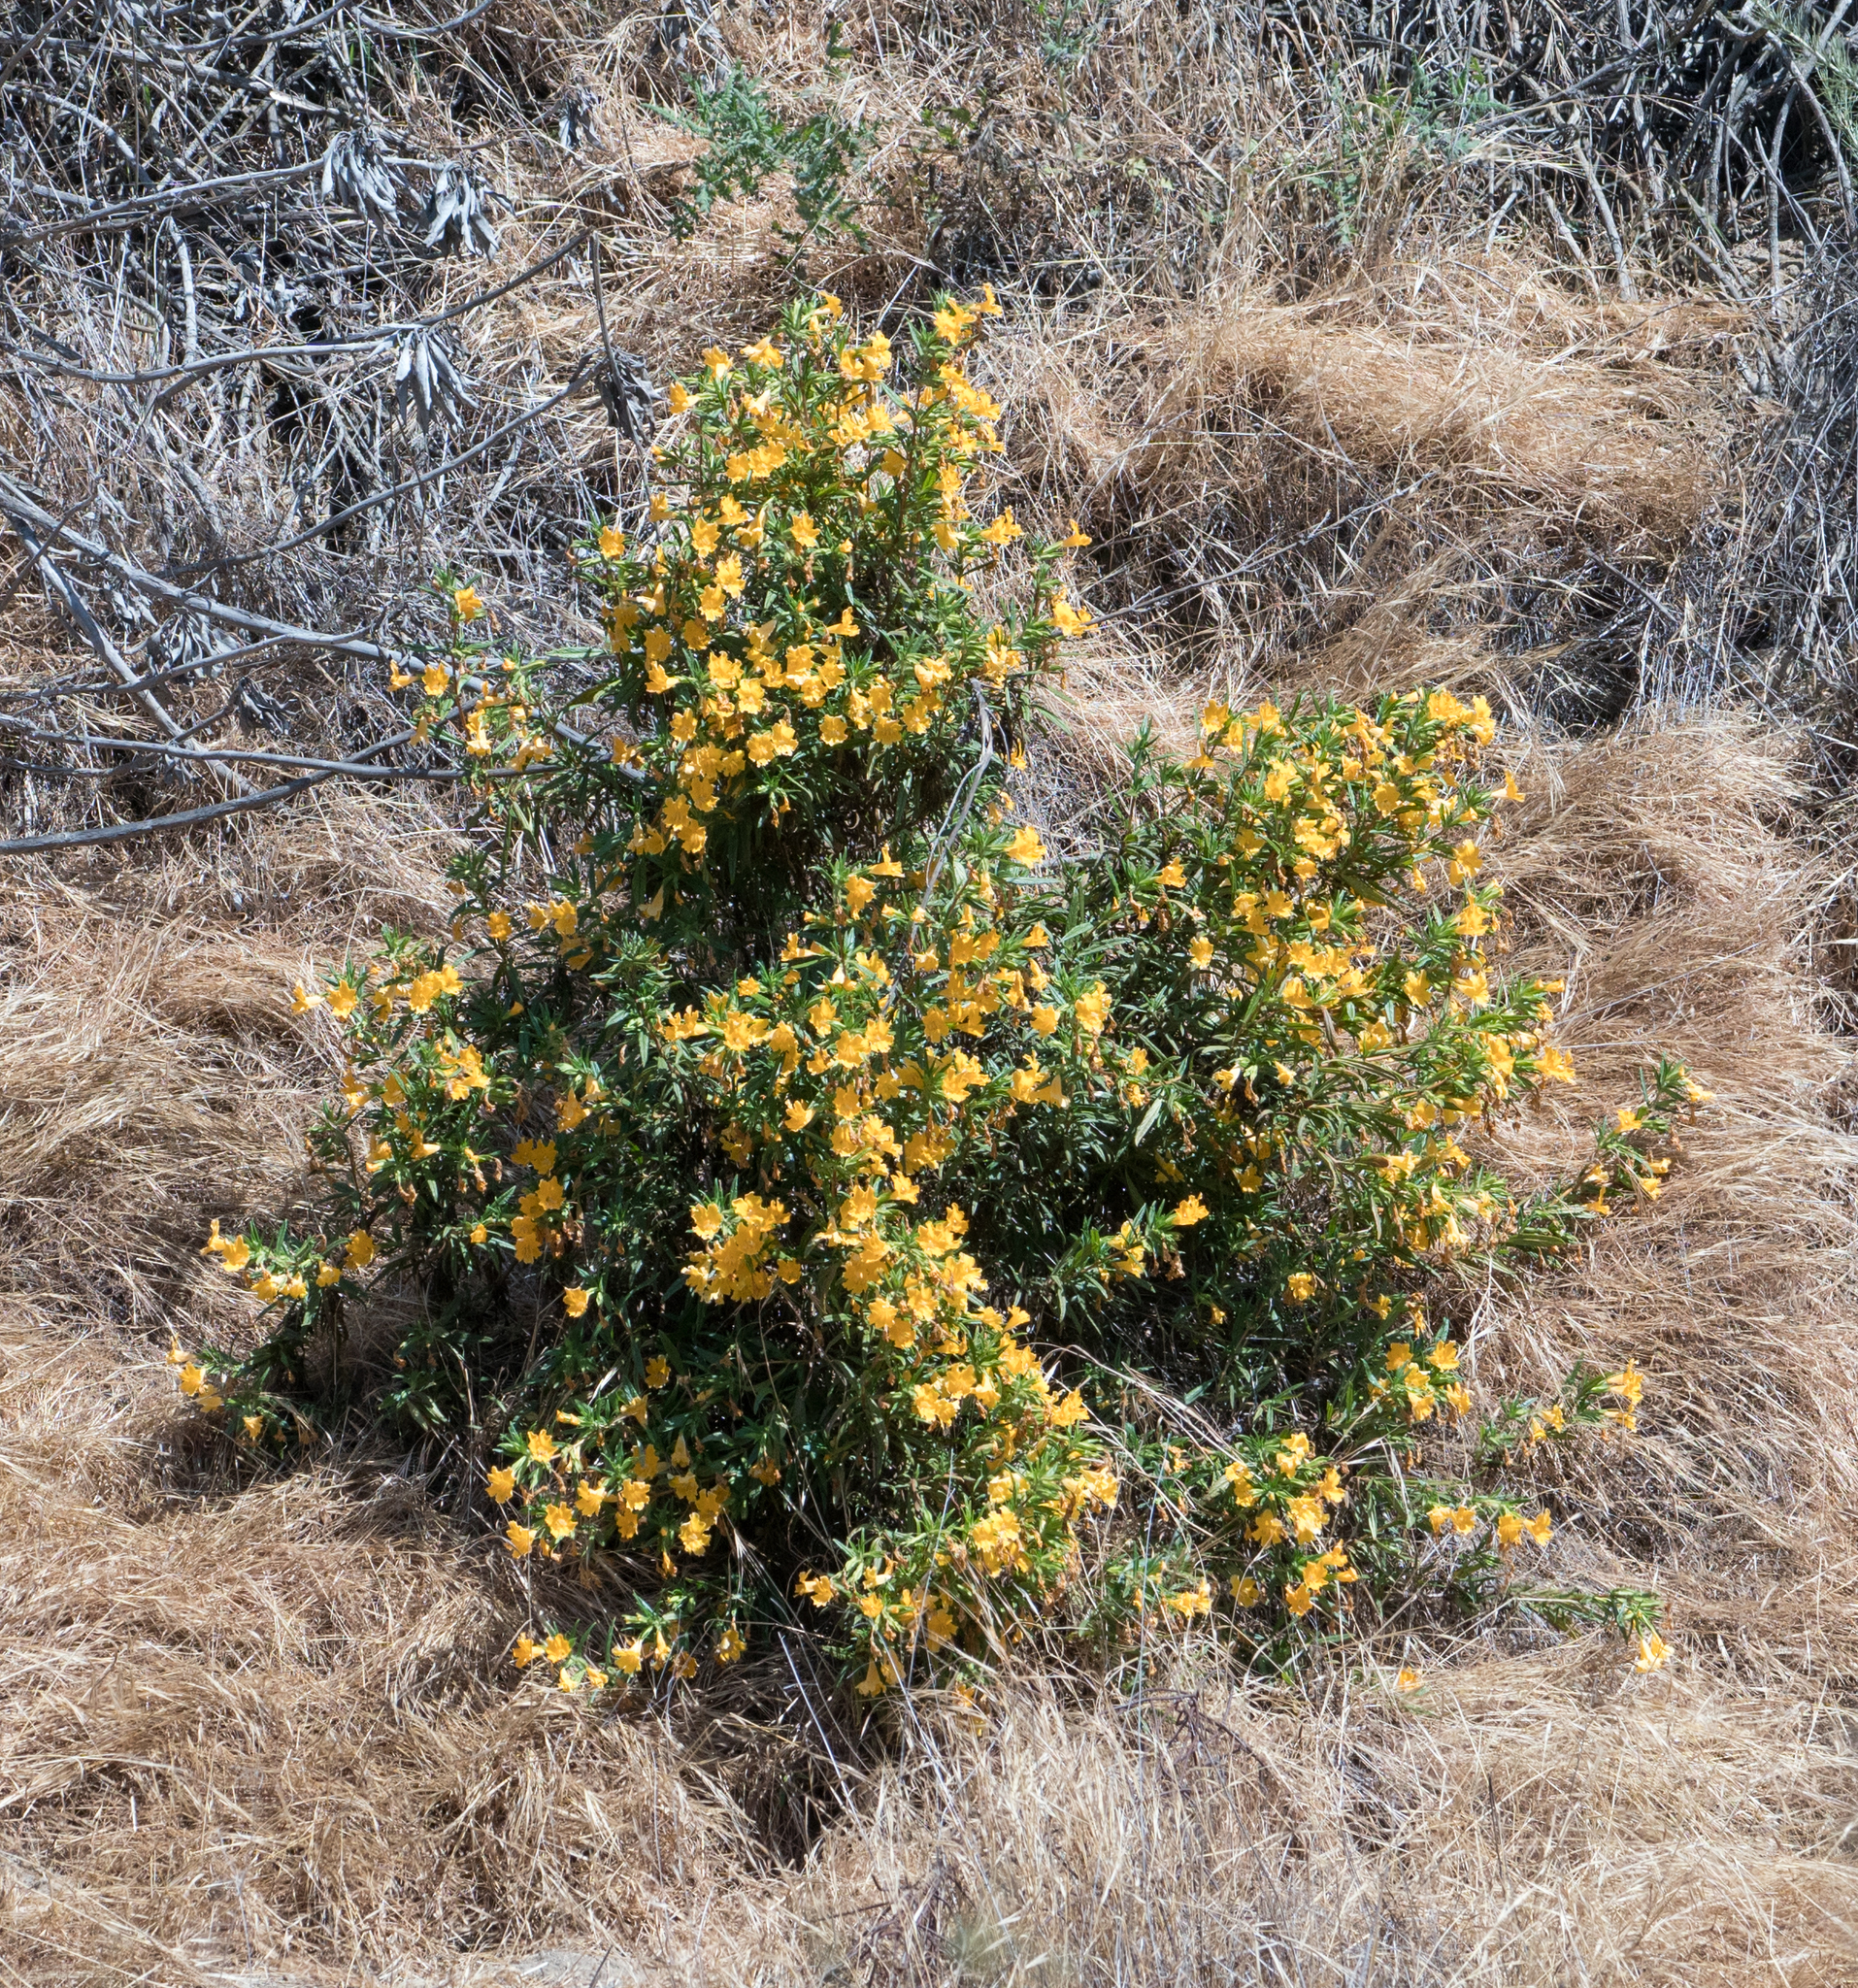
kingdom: Plantae
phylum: Tracheophyta
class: Magnoliopsida
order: Lamiales
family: Phrymaceae
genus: Diplacus
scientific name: Diplacus australis
